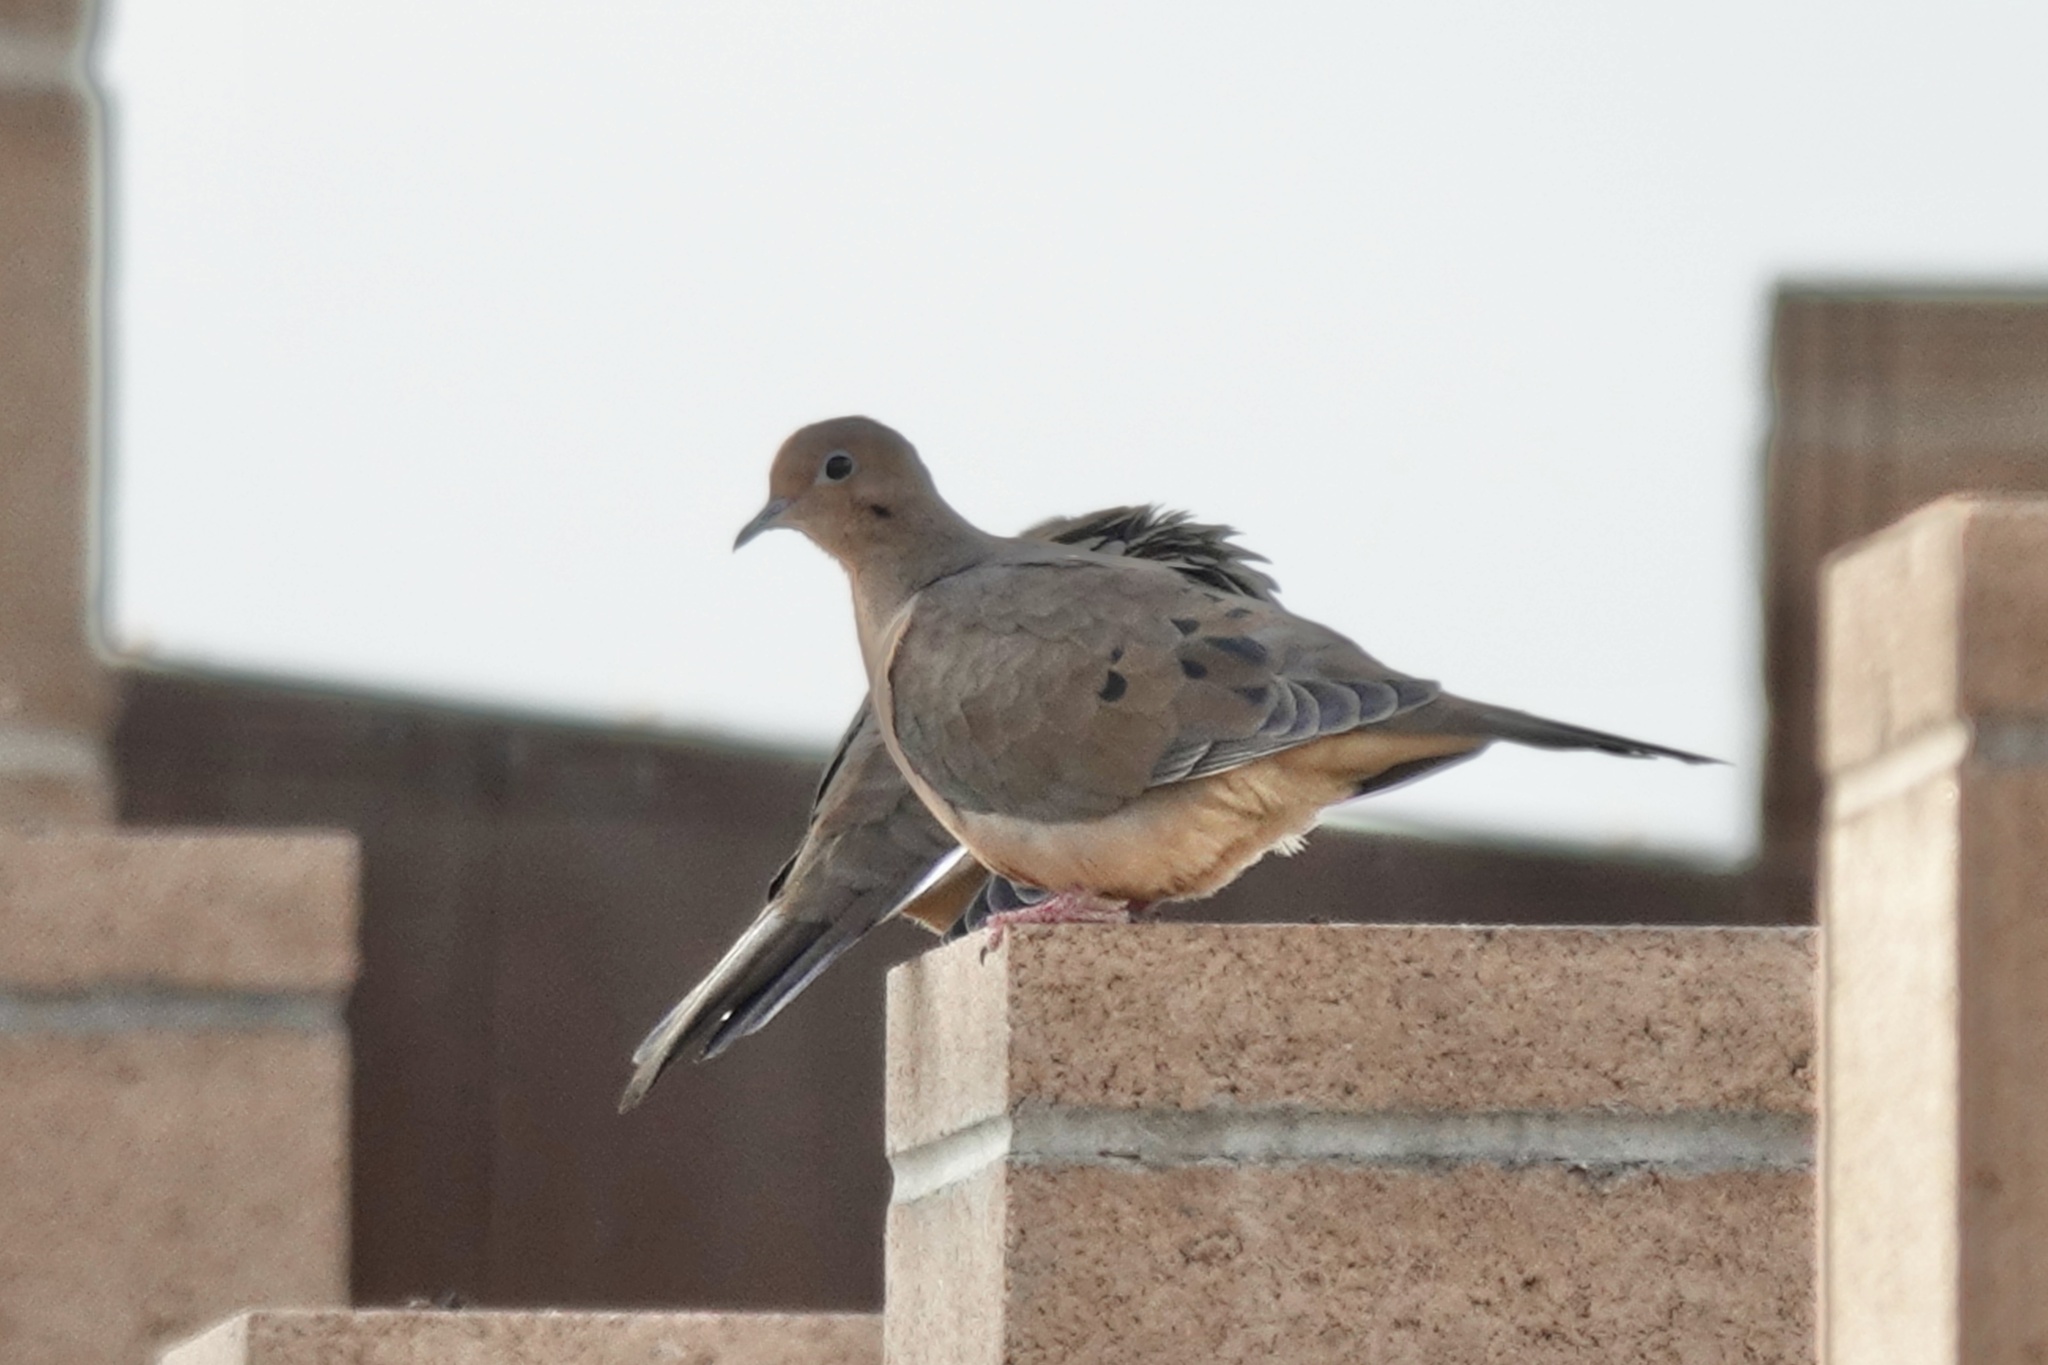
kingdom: Animalia
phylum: Chordata
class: Aves
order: Columbiformes
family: Columbidae
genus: Zenaida
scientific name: Zenaida macroura
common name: Mourning dove
